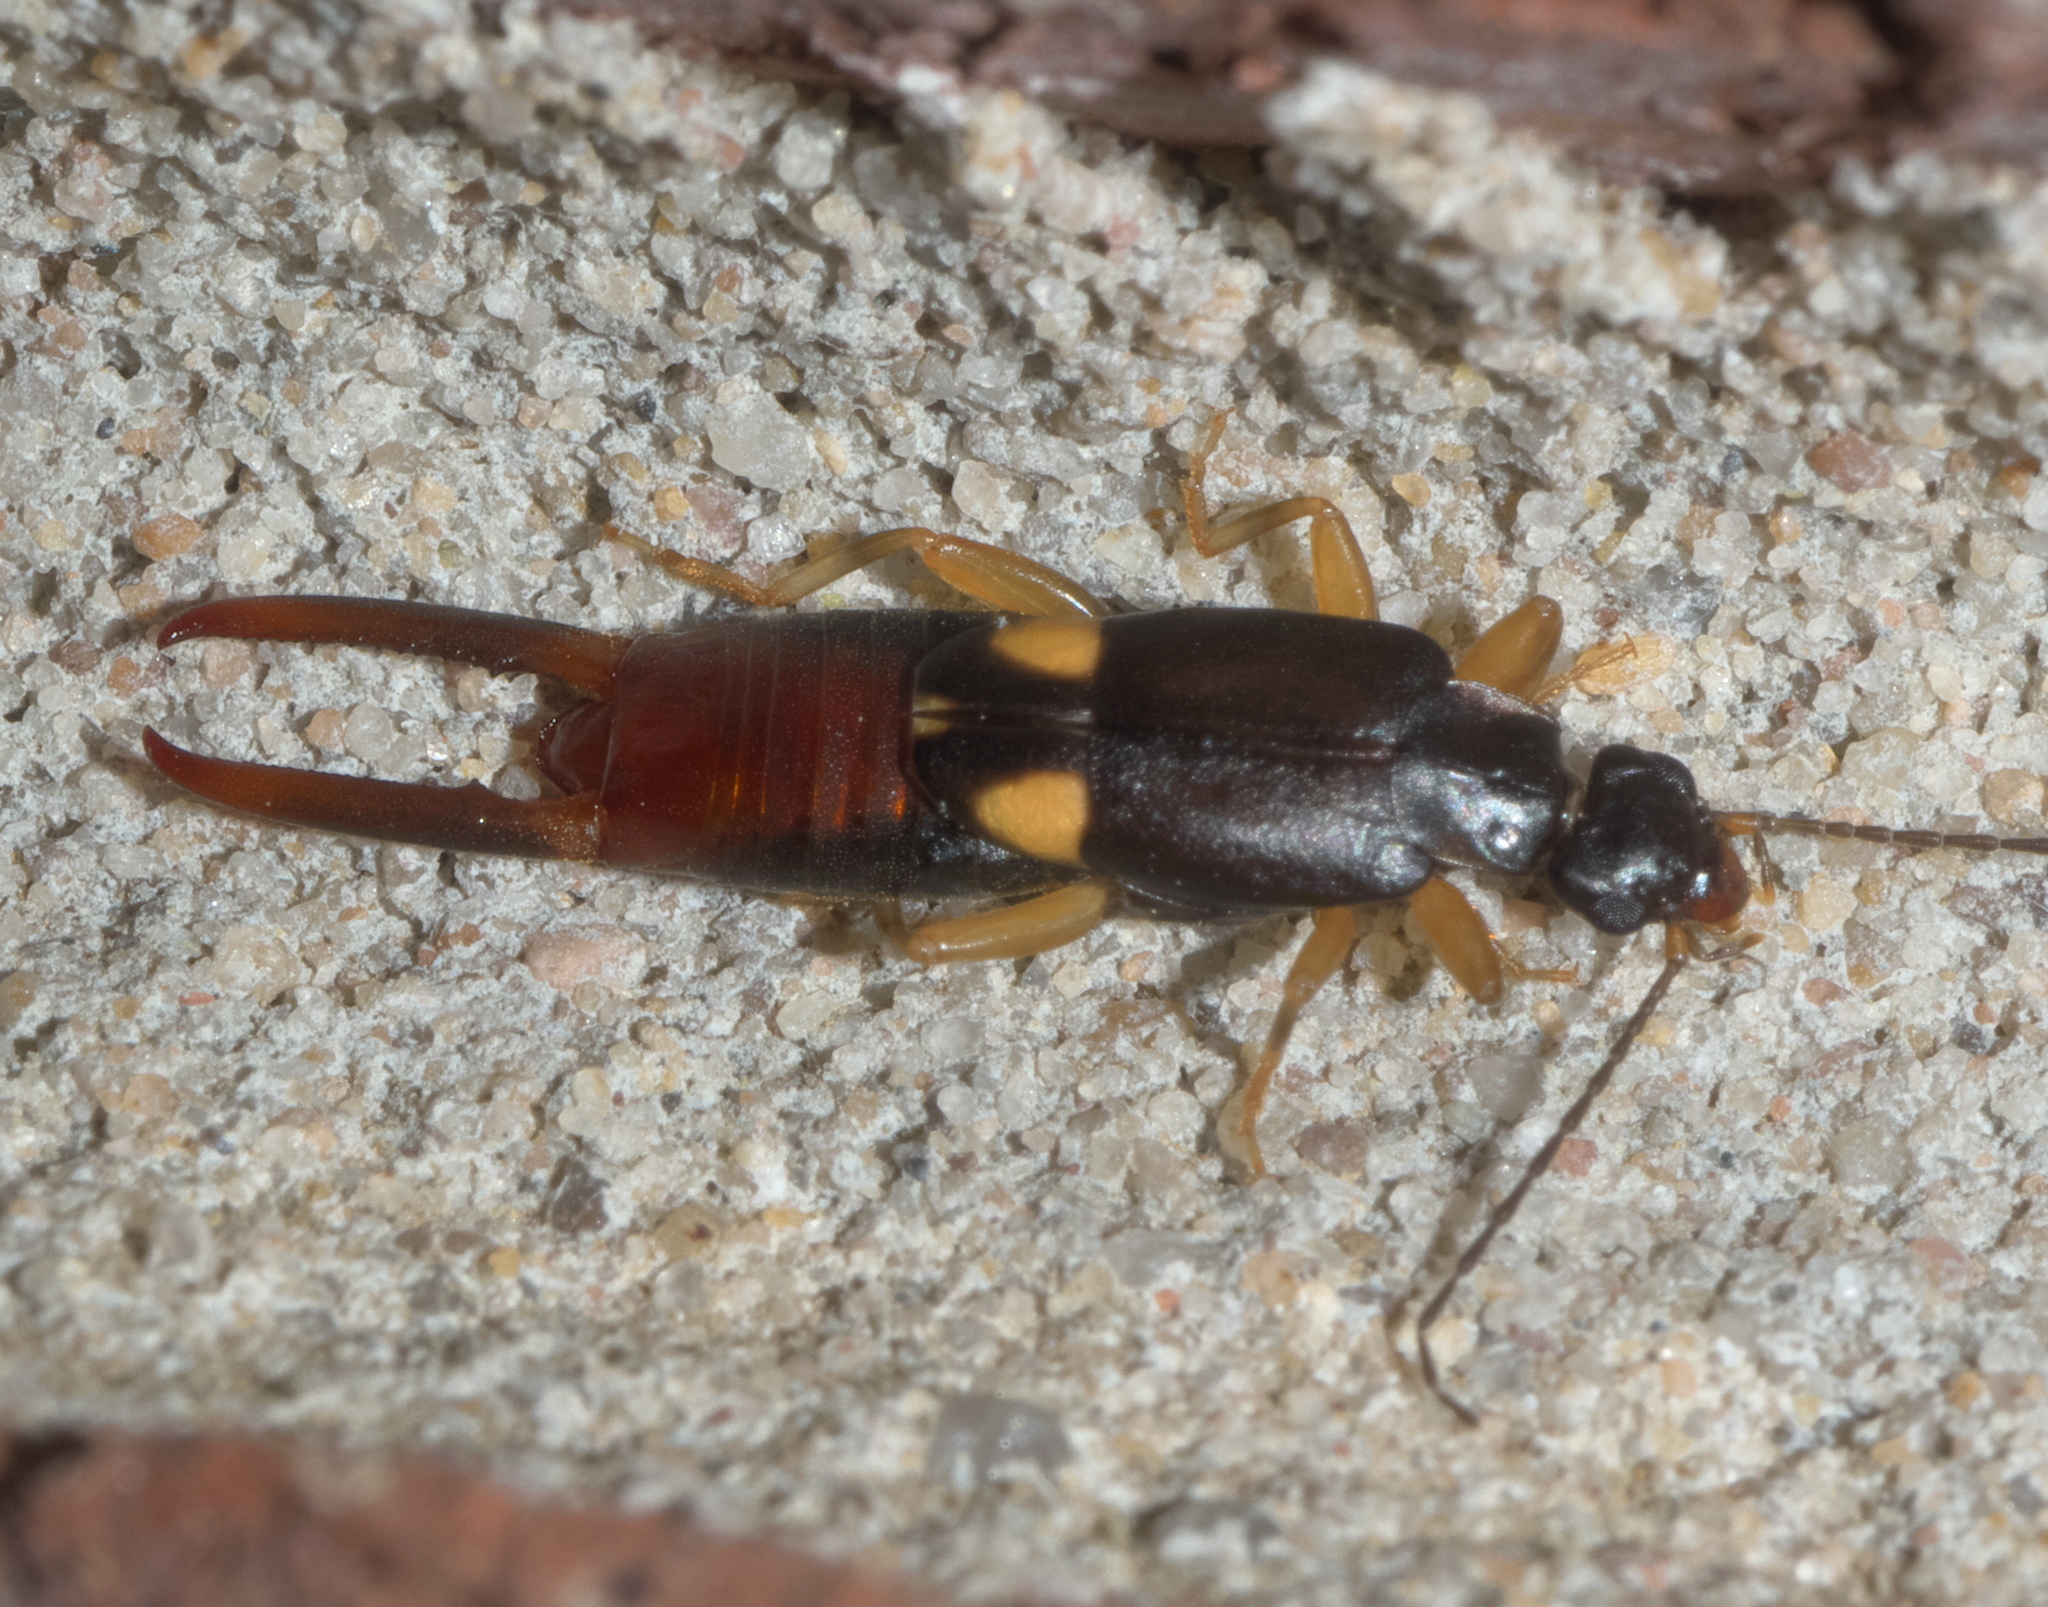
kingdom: Animalia
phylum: Arthropoda
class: Insecta
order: Dermaptera
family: Spongiphoridae
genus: Vostox
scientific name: Vostox brunneipennis
